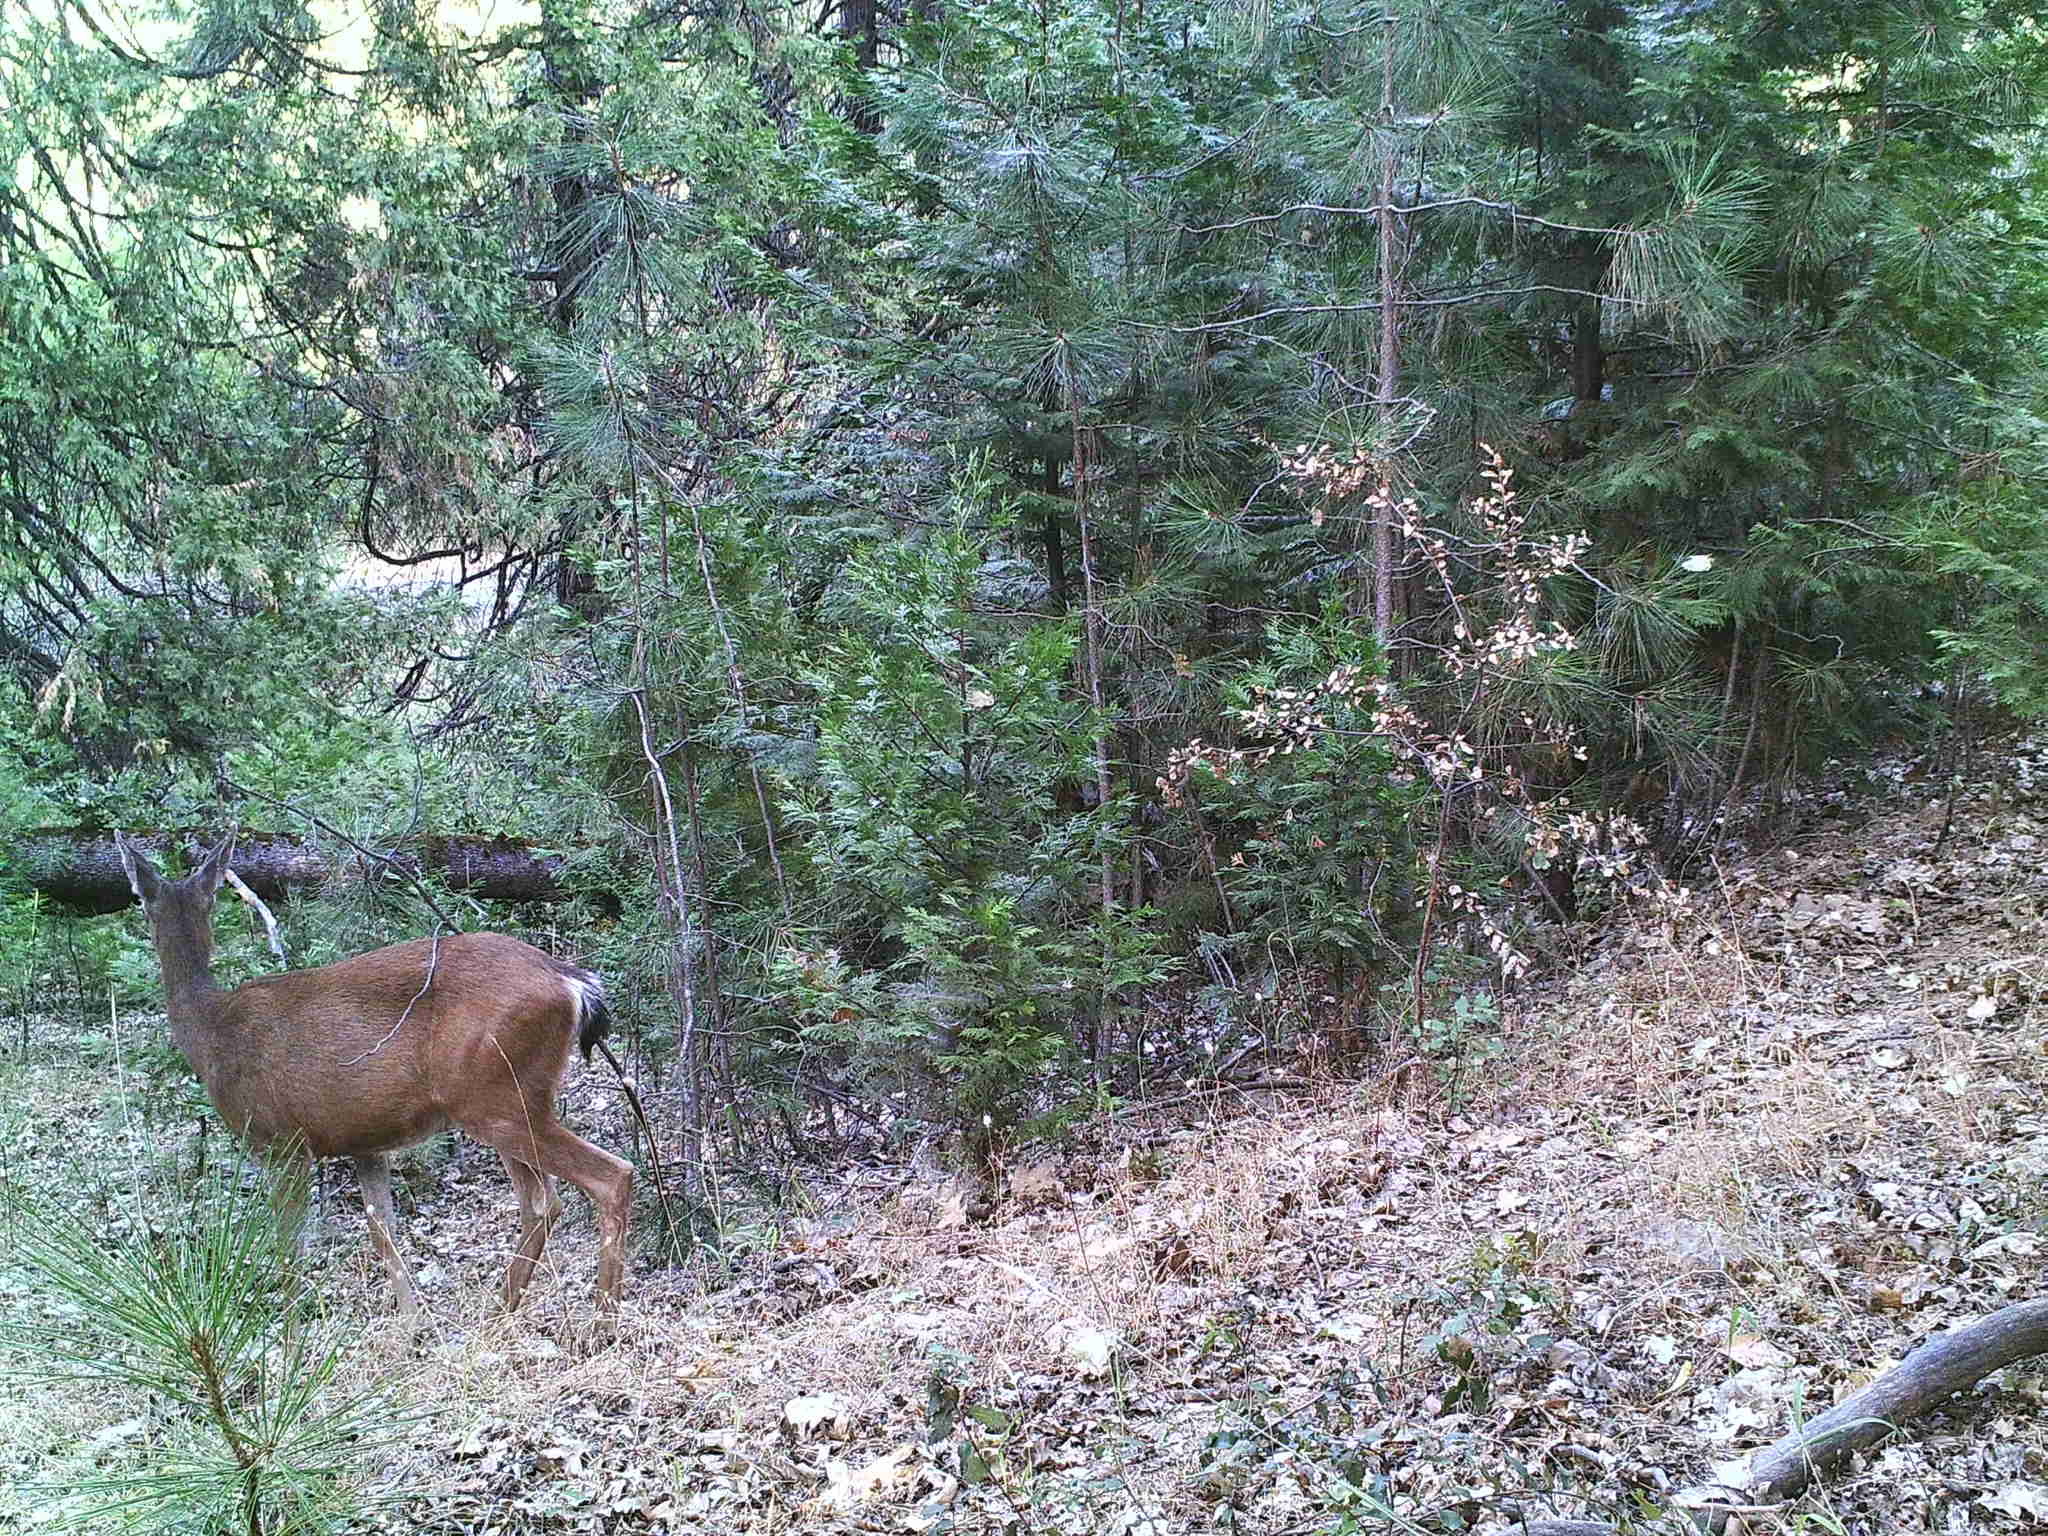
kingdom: Animalia
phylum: Chordata
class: Mammalia
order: Artiodactyla
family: Cervidae
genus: Odocoileus
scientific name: Odocoileus hemionus
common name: Mule deer
